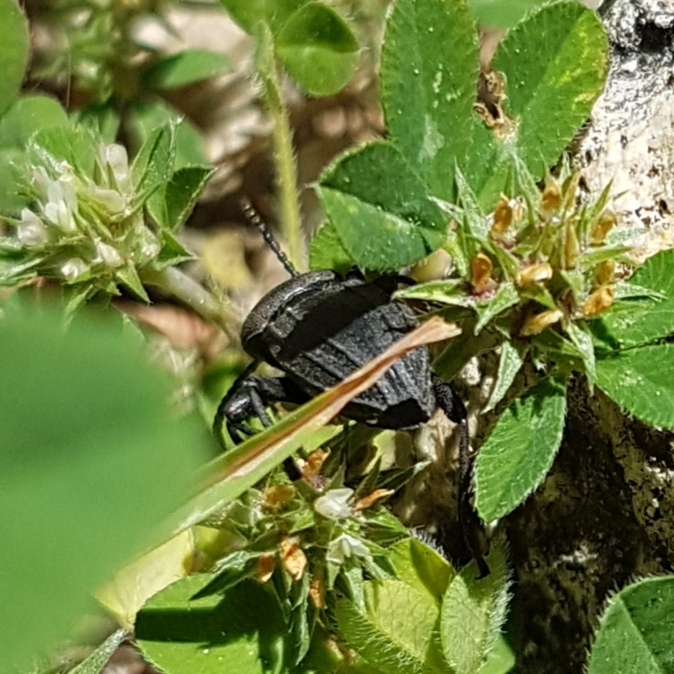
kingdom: Animalia
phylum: Arthropoda
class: Insecta
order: Coleoptera
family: Tenebrionidae
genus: Scaurus
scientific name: Scaurus striatus
